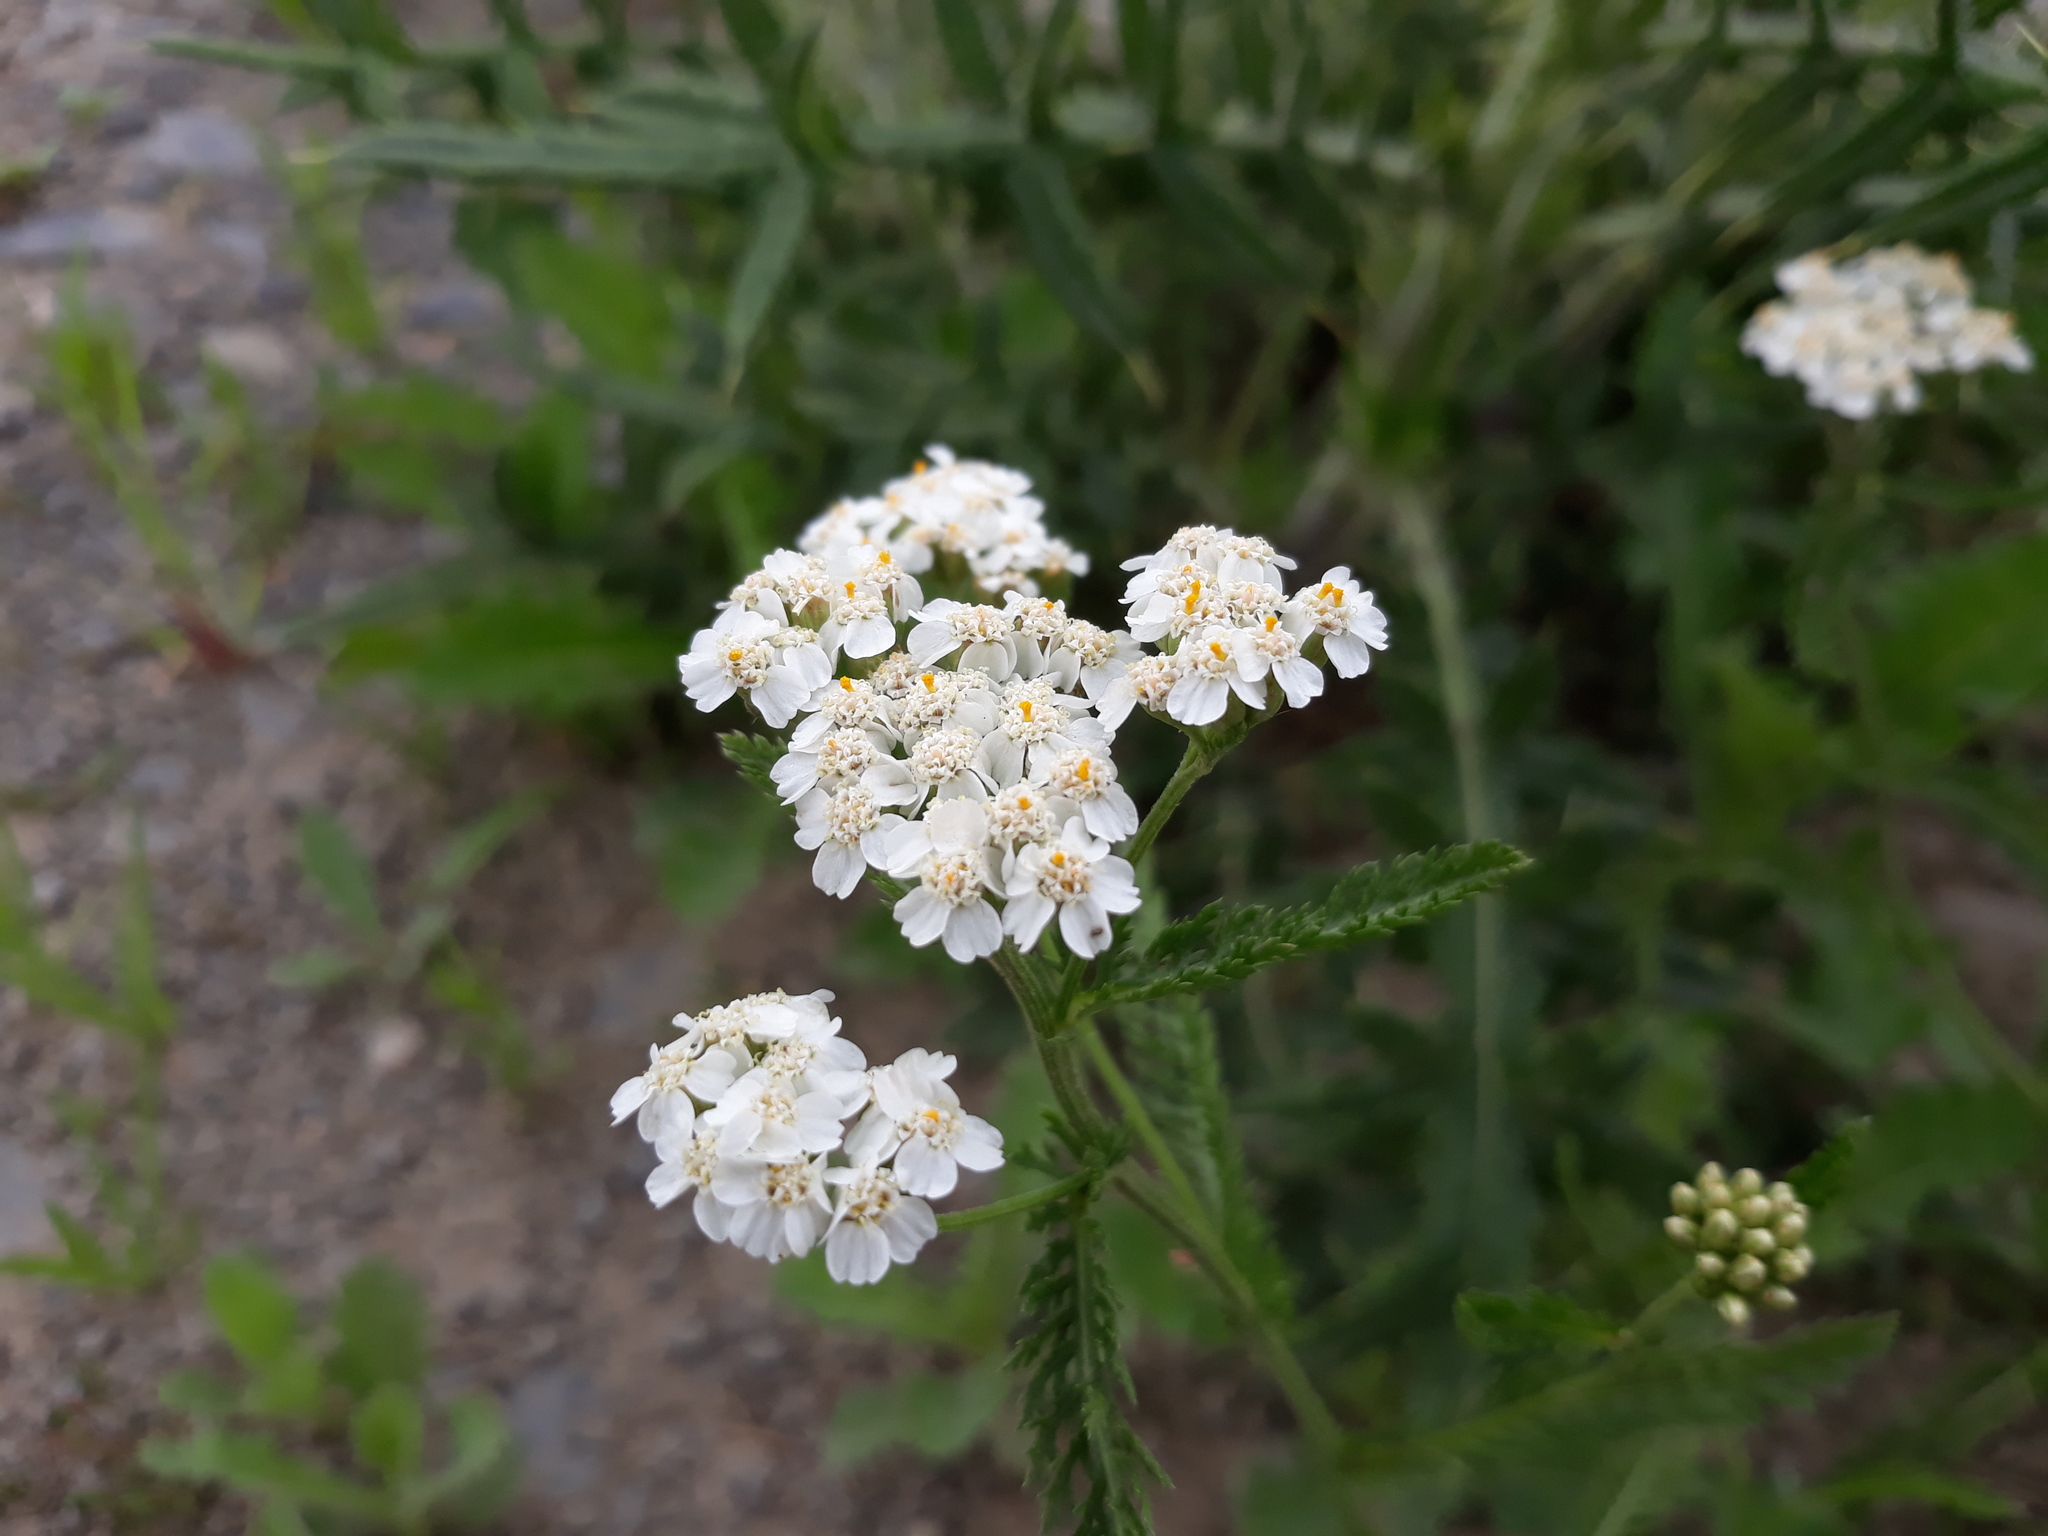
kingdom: Plantae
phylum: Tracheophyta
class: Magnoliopsida
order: Asterales
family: Asteraceae
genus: Achillea
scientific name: Achillea millefolium
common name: Yarrow
